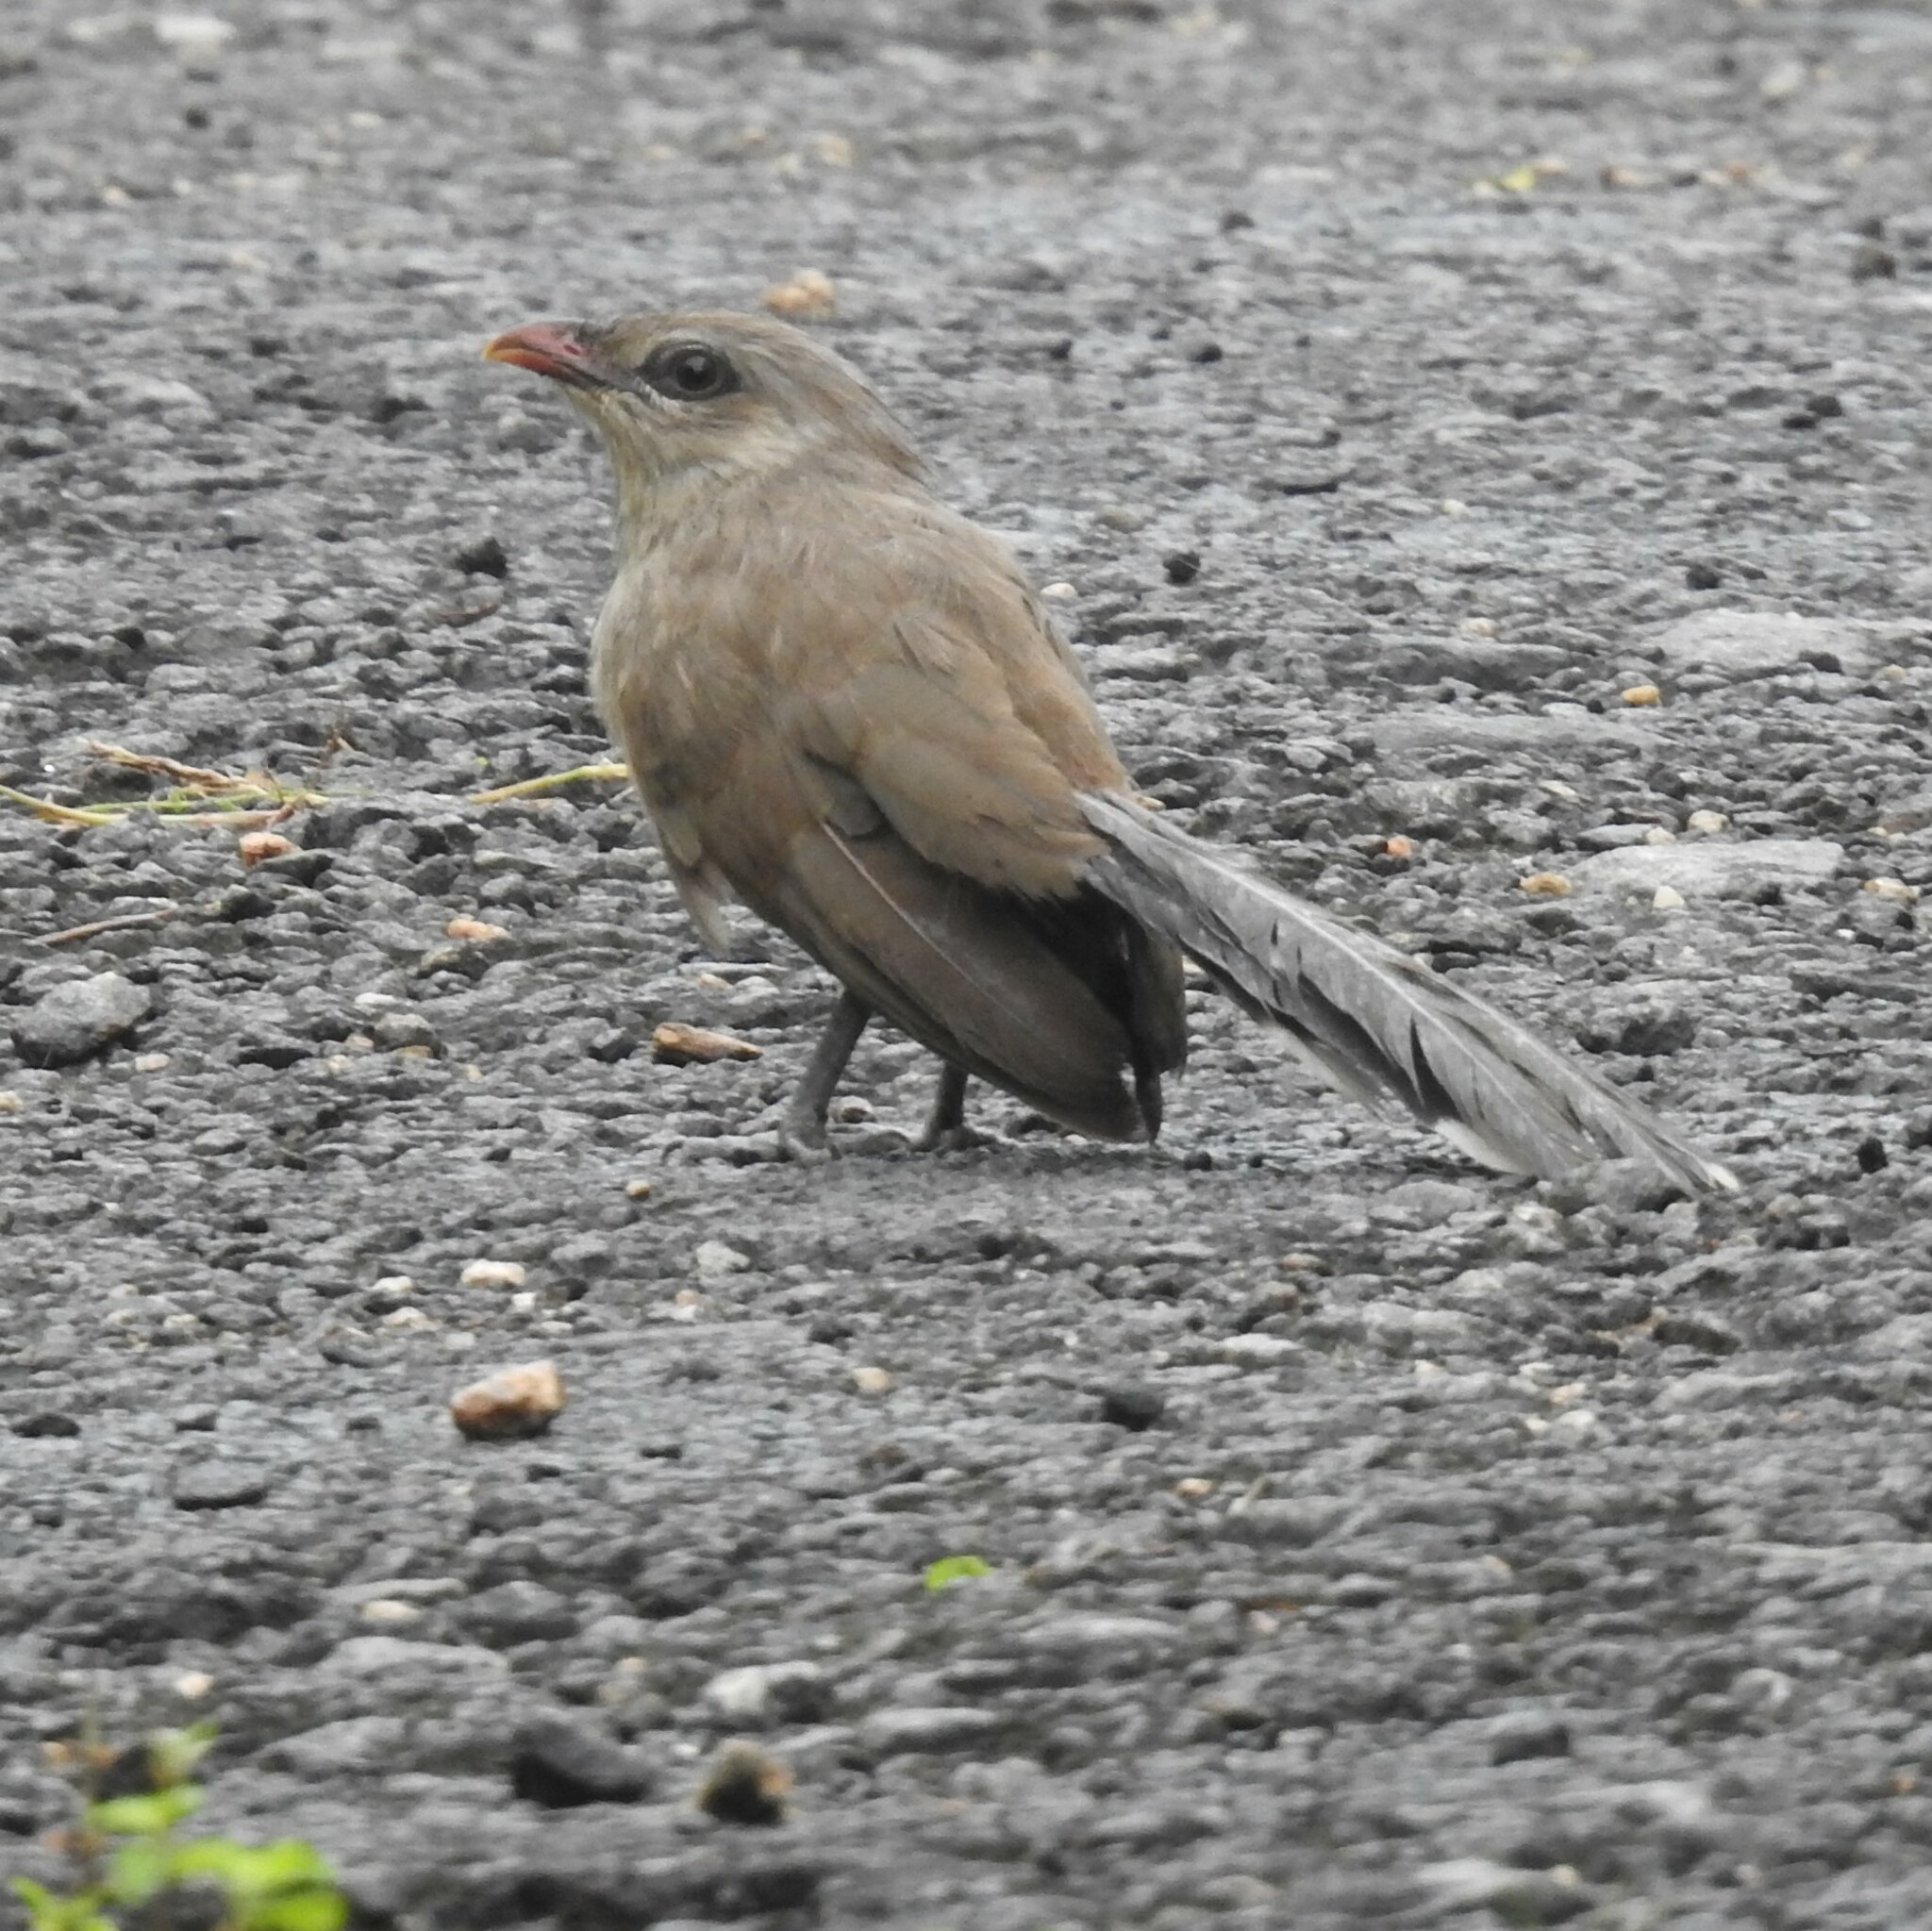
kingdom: Animalia
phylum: Chordata
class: Aves
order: Cuculiformes
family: Cuculidae
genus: Taccocua
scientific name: Taccocua leschenaultii
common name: Sirkeer malkoha
